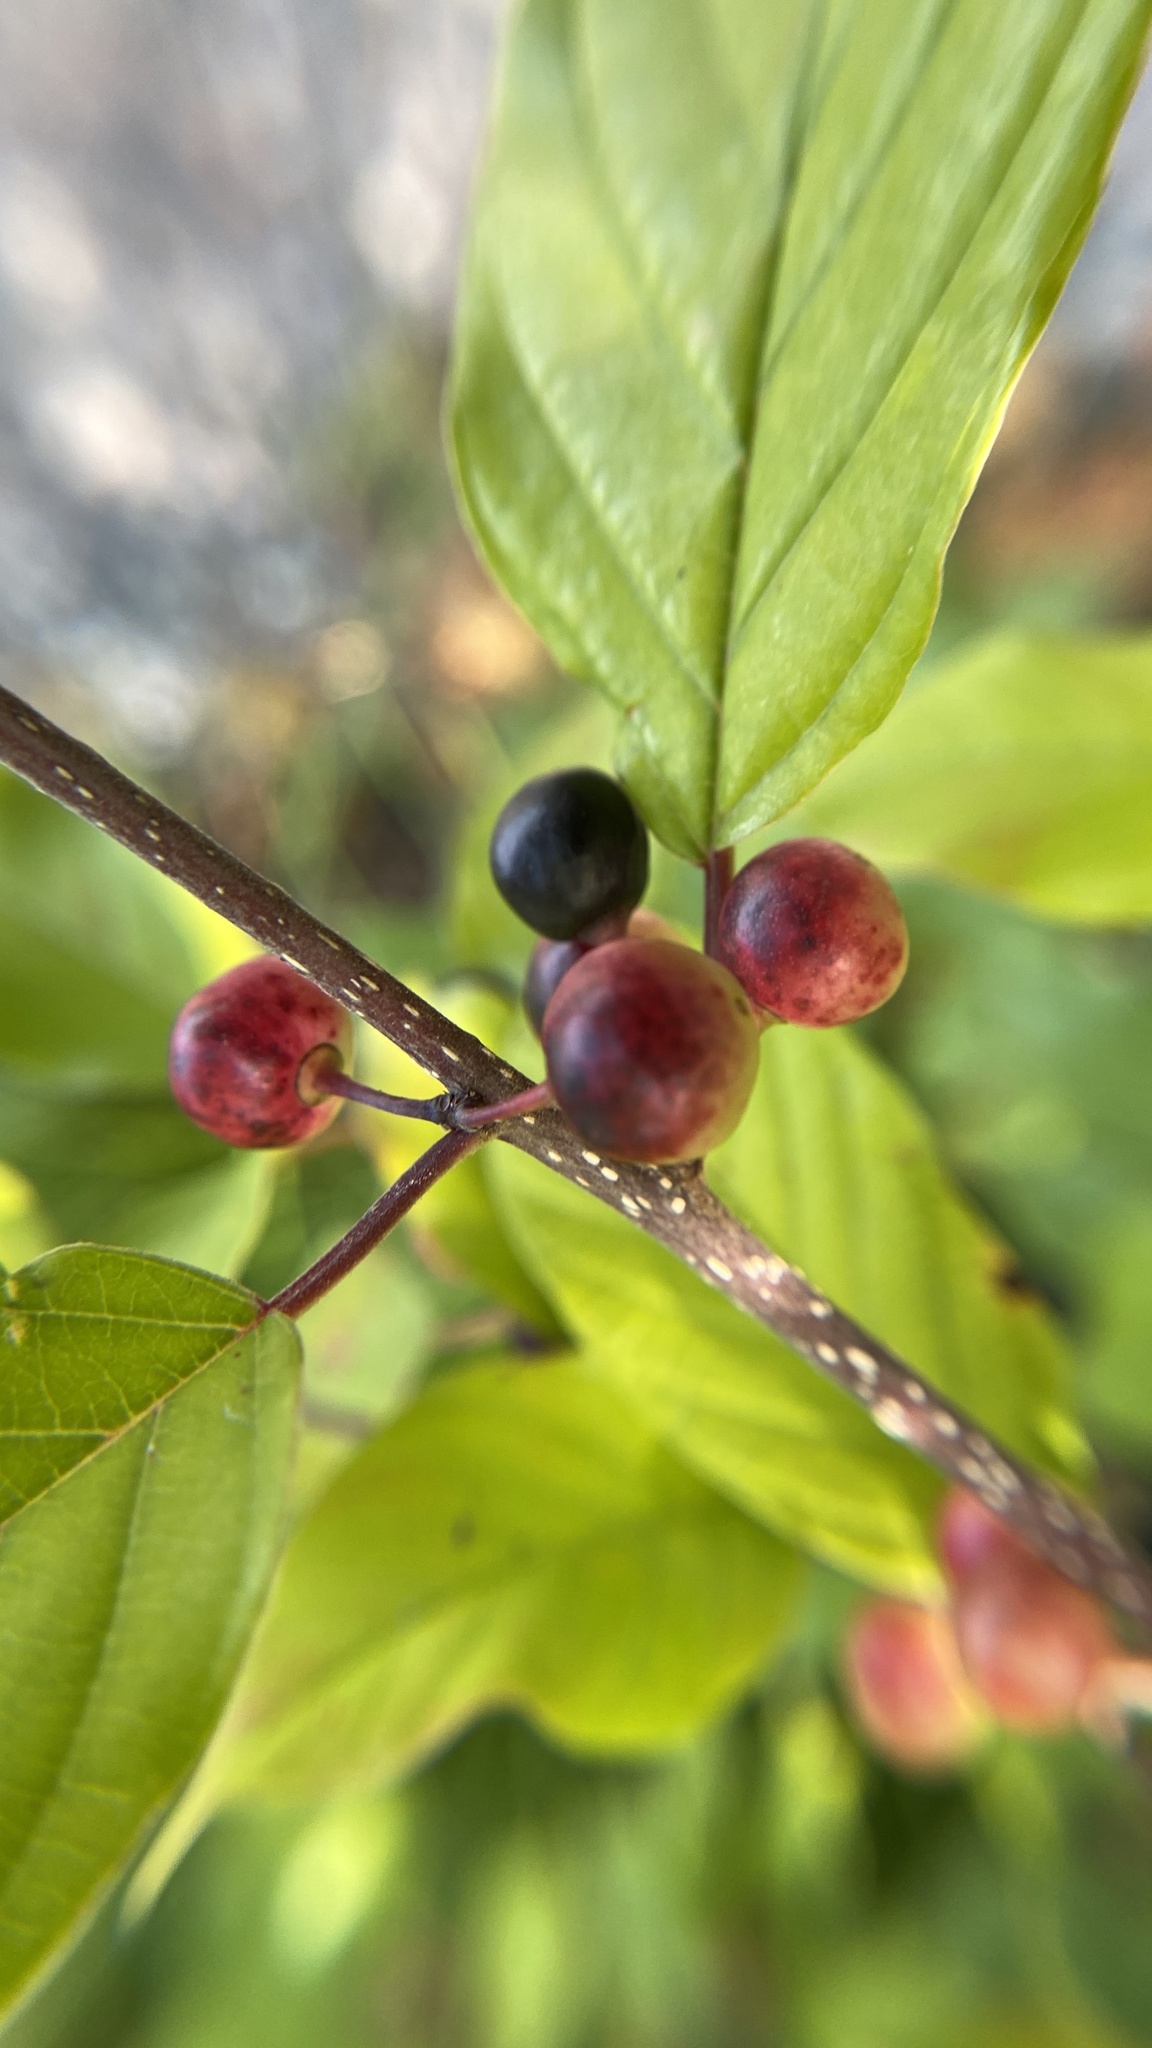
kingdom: Plantae
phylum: Tracheophyta
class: Magnoliopsida
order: Rosales
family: Rhamnaceae
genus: Frangula
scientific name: Frangula alnus
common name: Alder buckthorn
